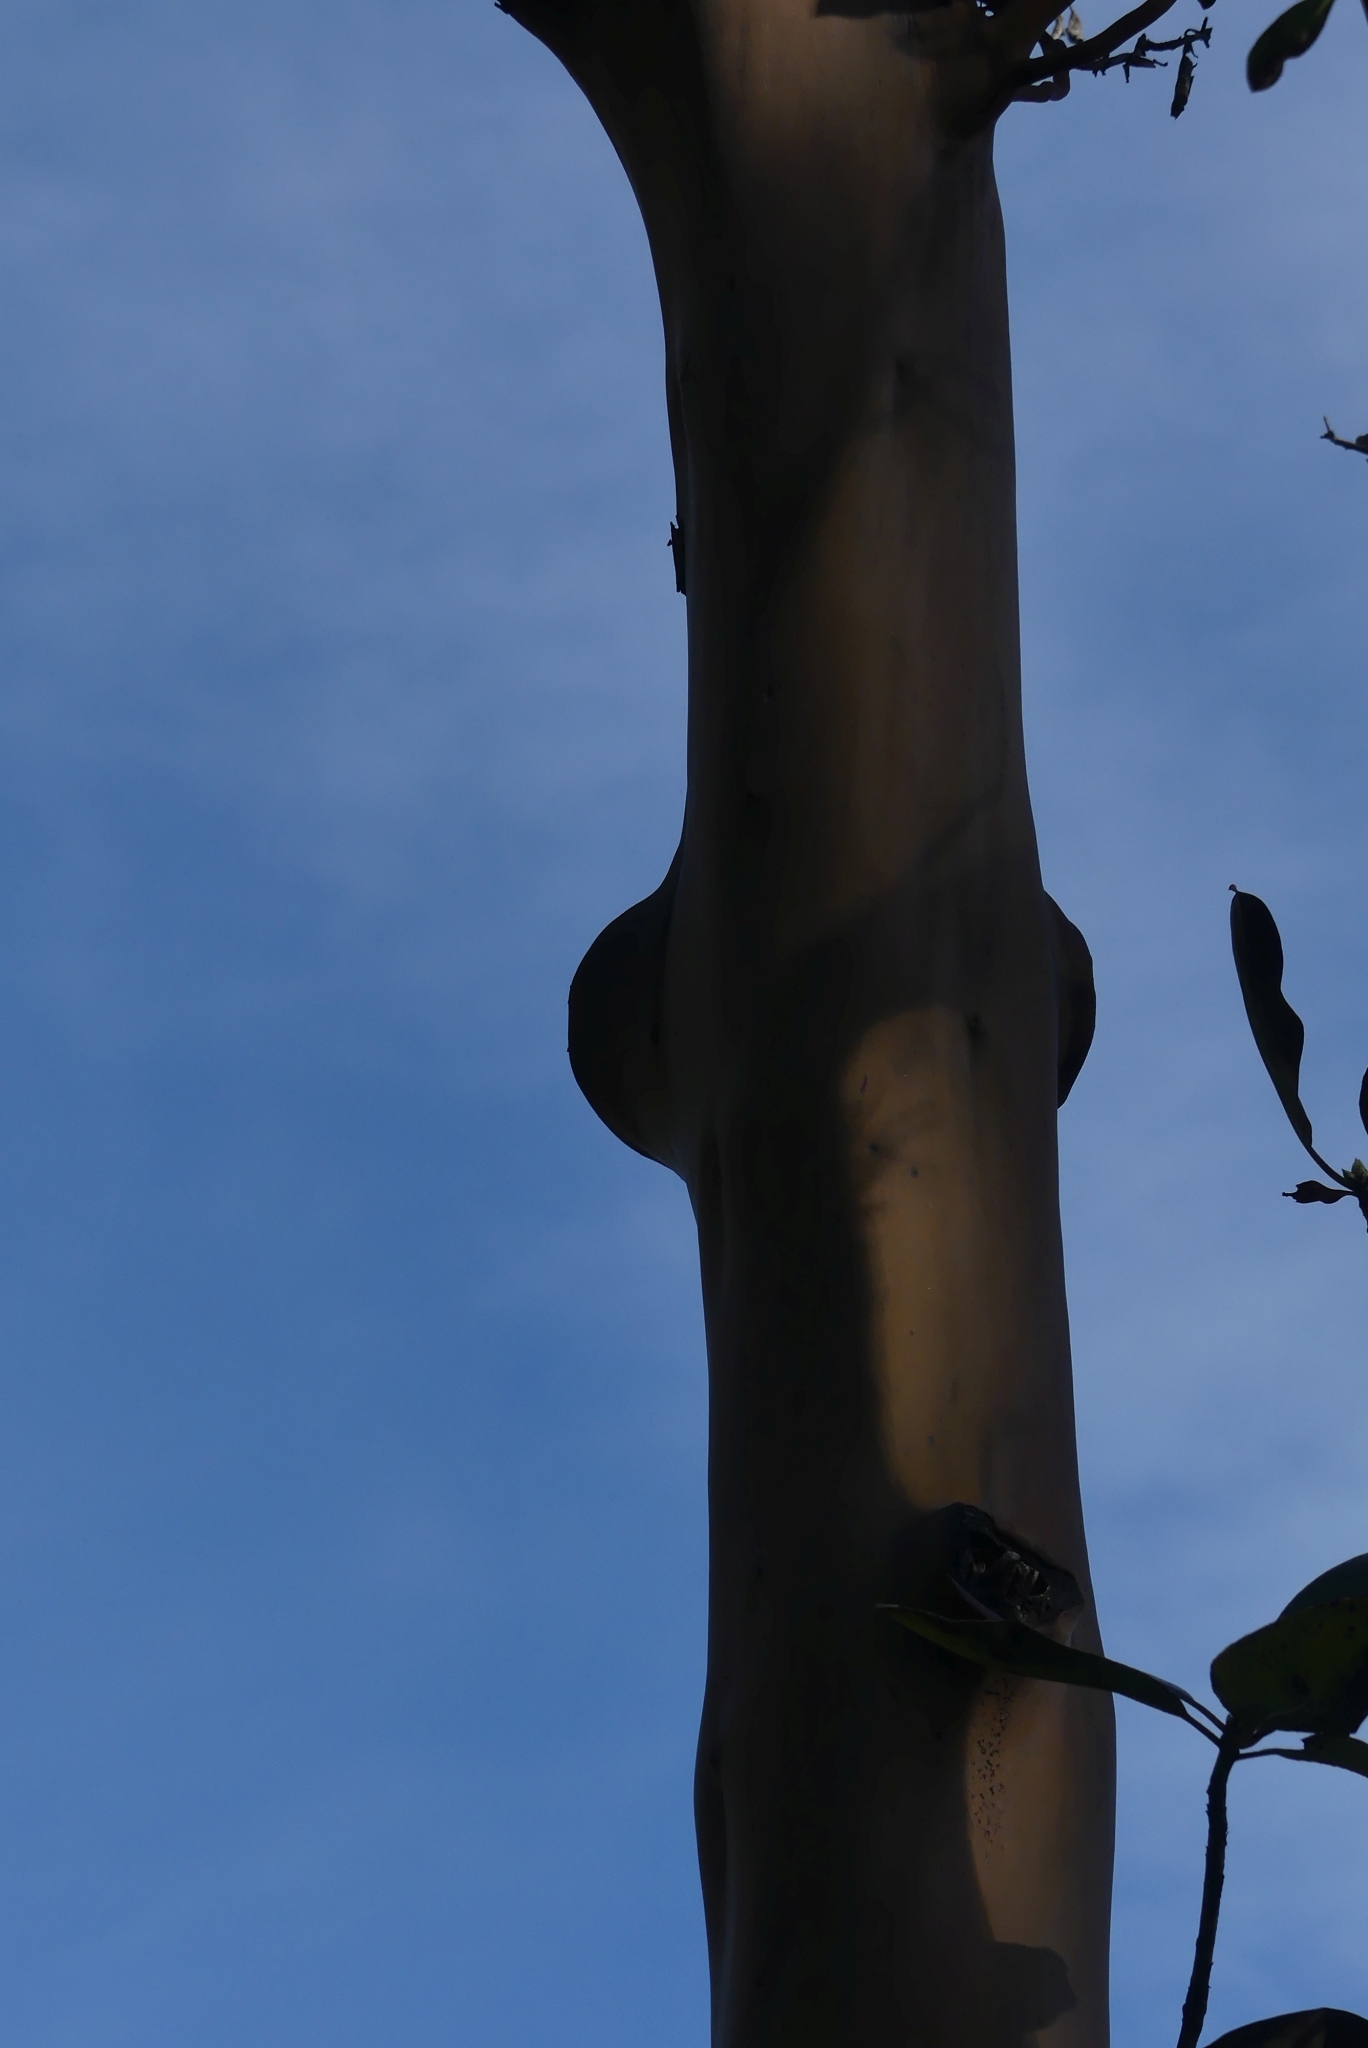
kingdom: Plantae
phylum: Tracheophyta
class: Magnoliopsida
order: Ericales
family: Ericaceae
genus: Arbutus
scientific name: Arbutus menziesii
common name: Pacific madrone
